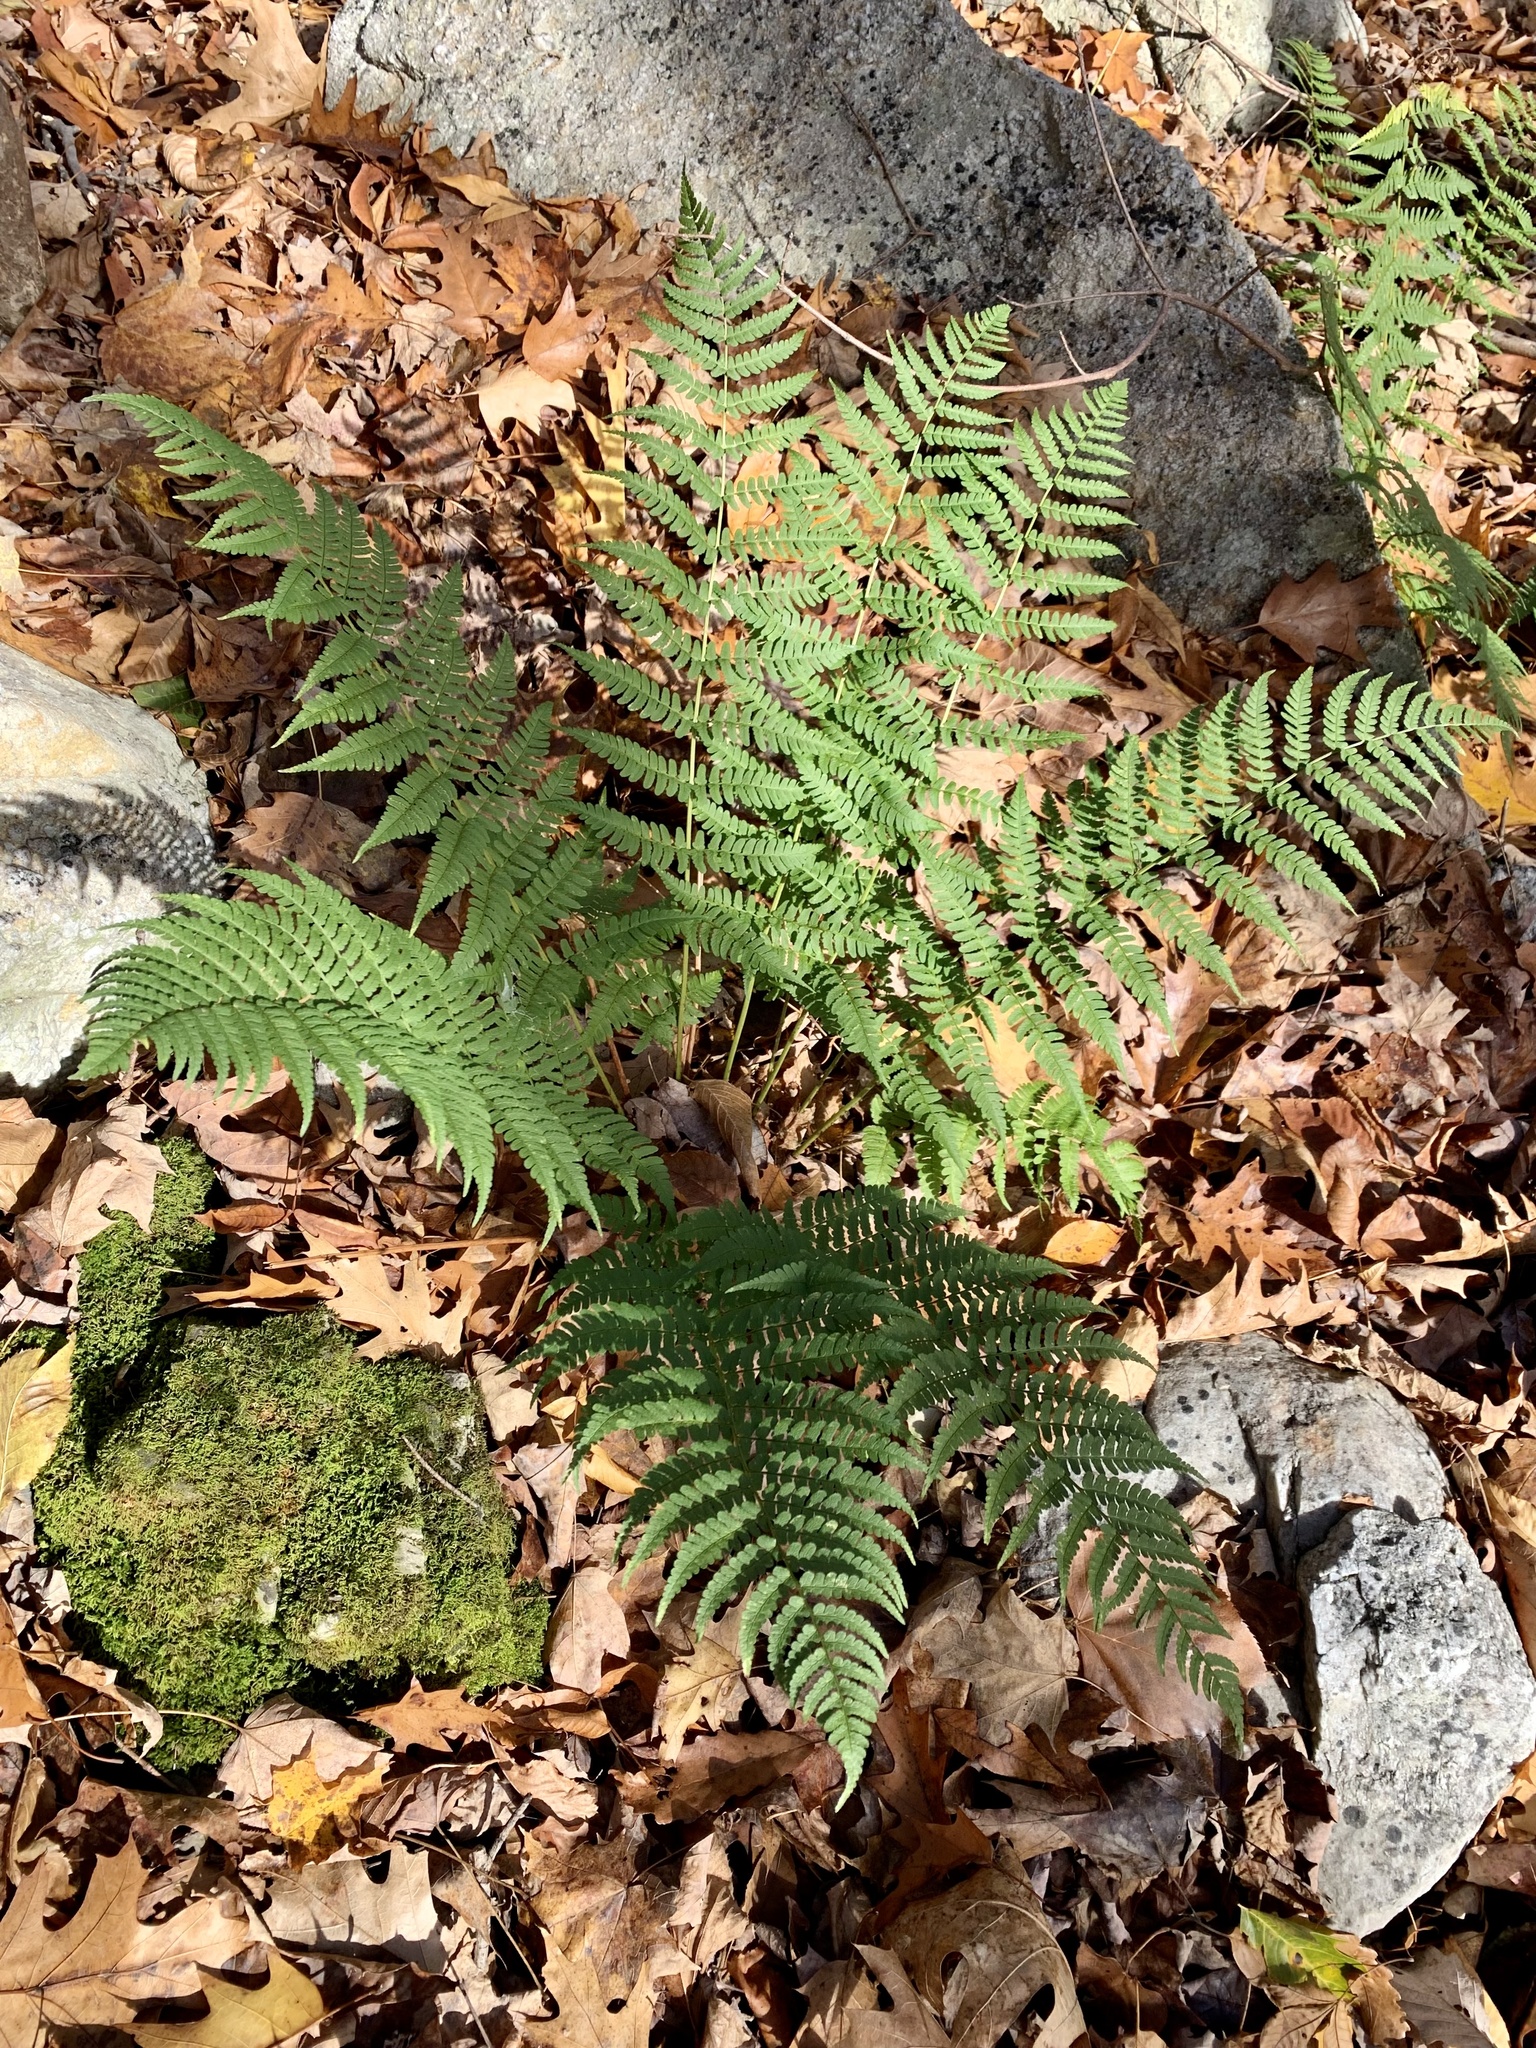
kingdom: Plantae
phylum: Tracheophyta
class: Polypodiopsida
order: Polypodiales
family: Dryopteridaceae
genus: Dryopteris
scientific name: Dryopteris marginalis
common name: Marginal wood fern
